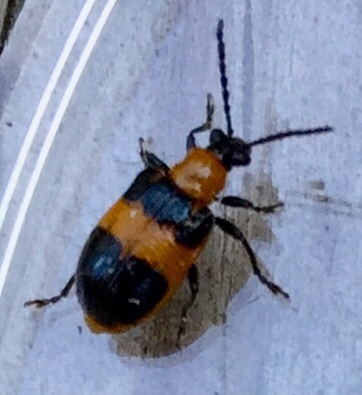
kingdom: Animalia
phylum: Arthropoda
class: Insecta
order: Coleoptera
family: Chrysomelidae
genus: Lema
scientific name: Lema solani
